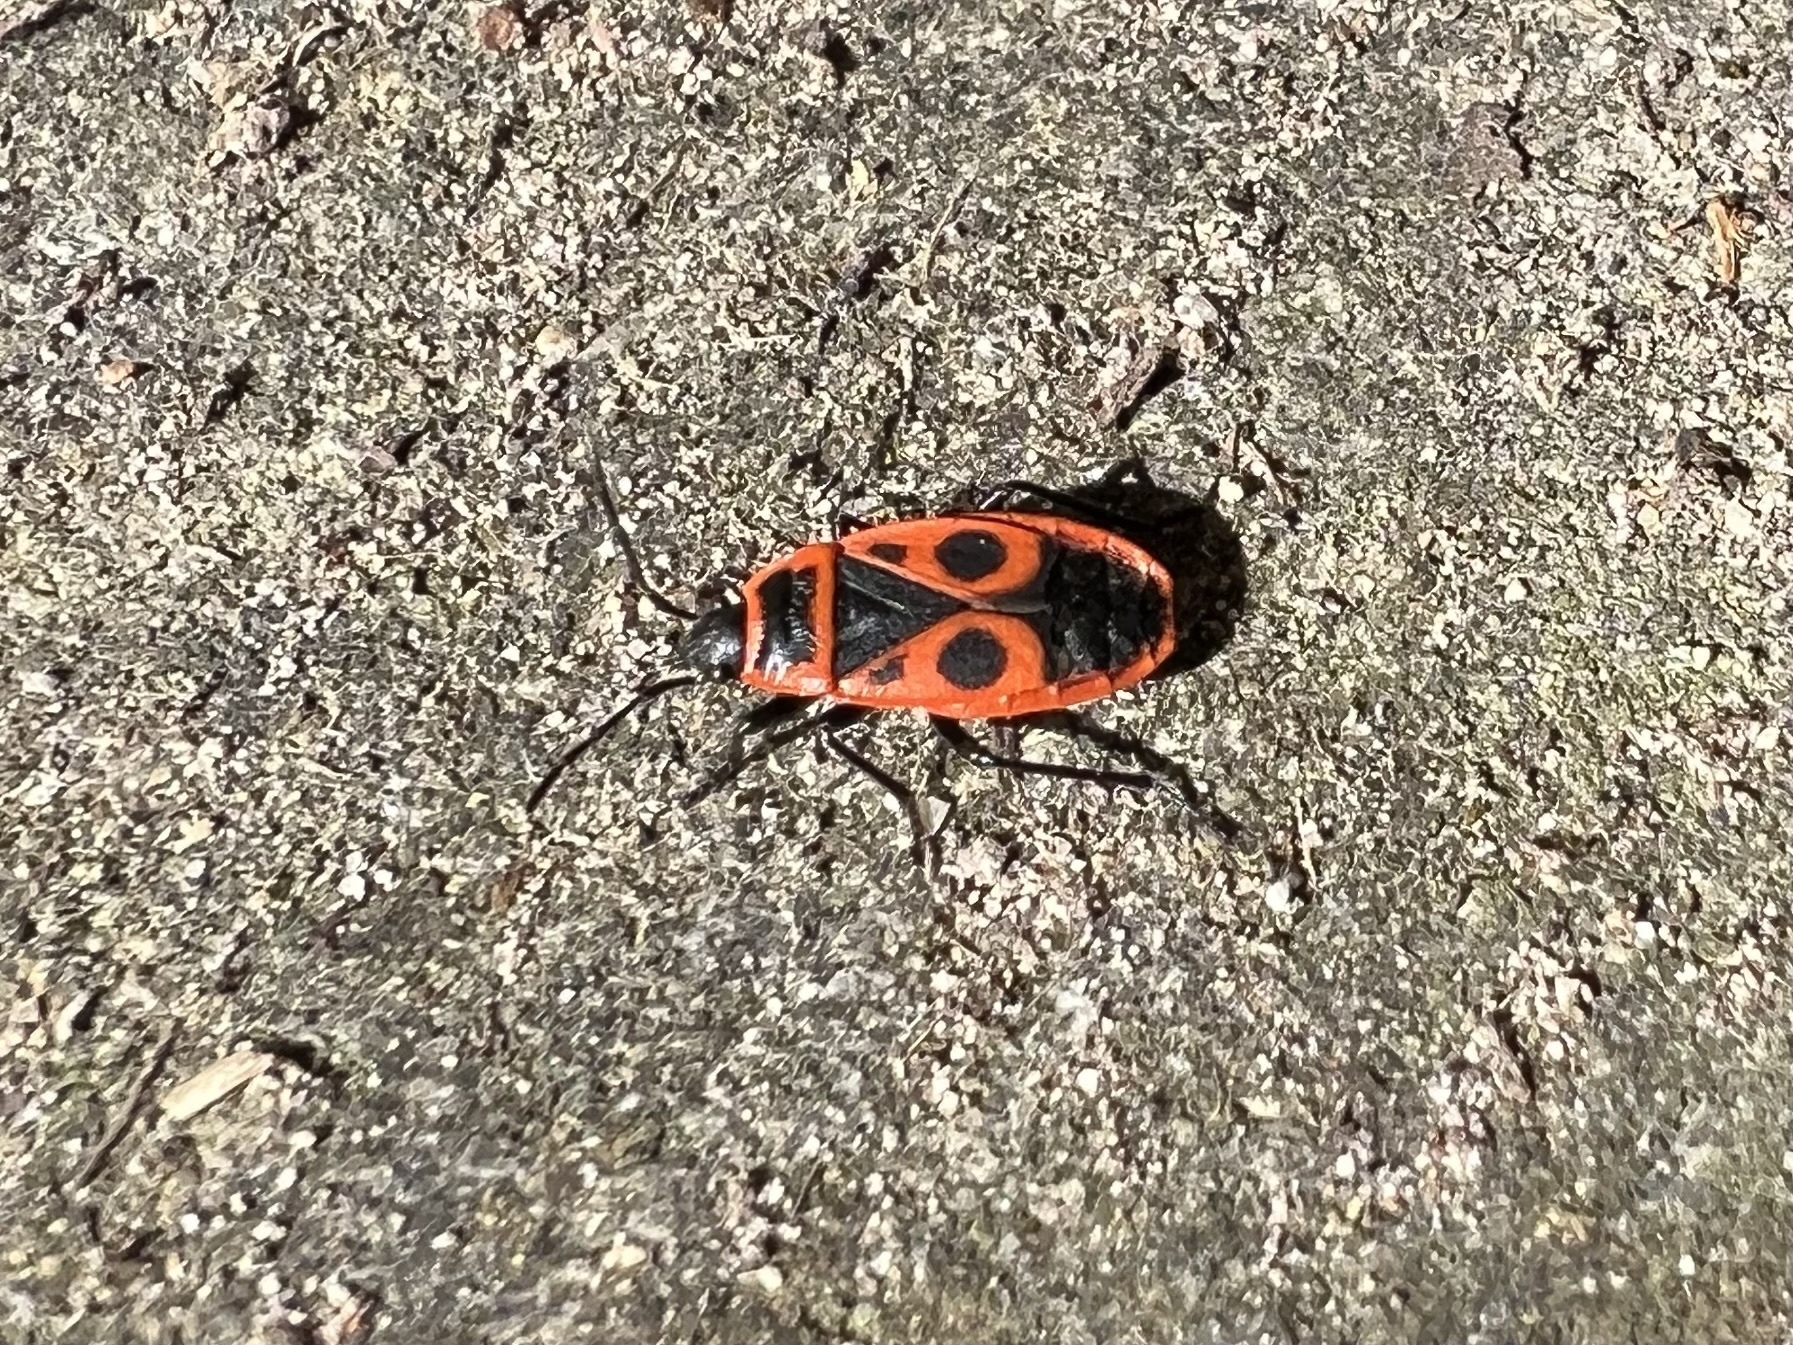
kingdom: Animalia
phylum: Arthropoda
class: Insecta
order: Hemiptera
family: Pyrrhocoridae
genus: Pyrrhocoris
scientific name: Pyrrhocoris apterus
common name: Firebug
